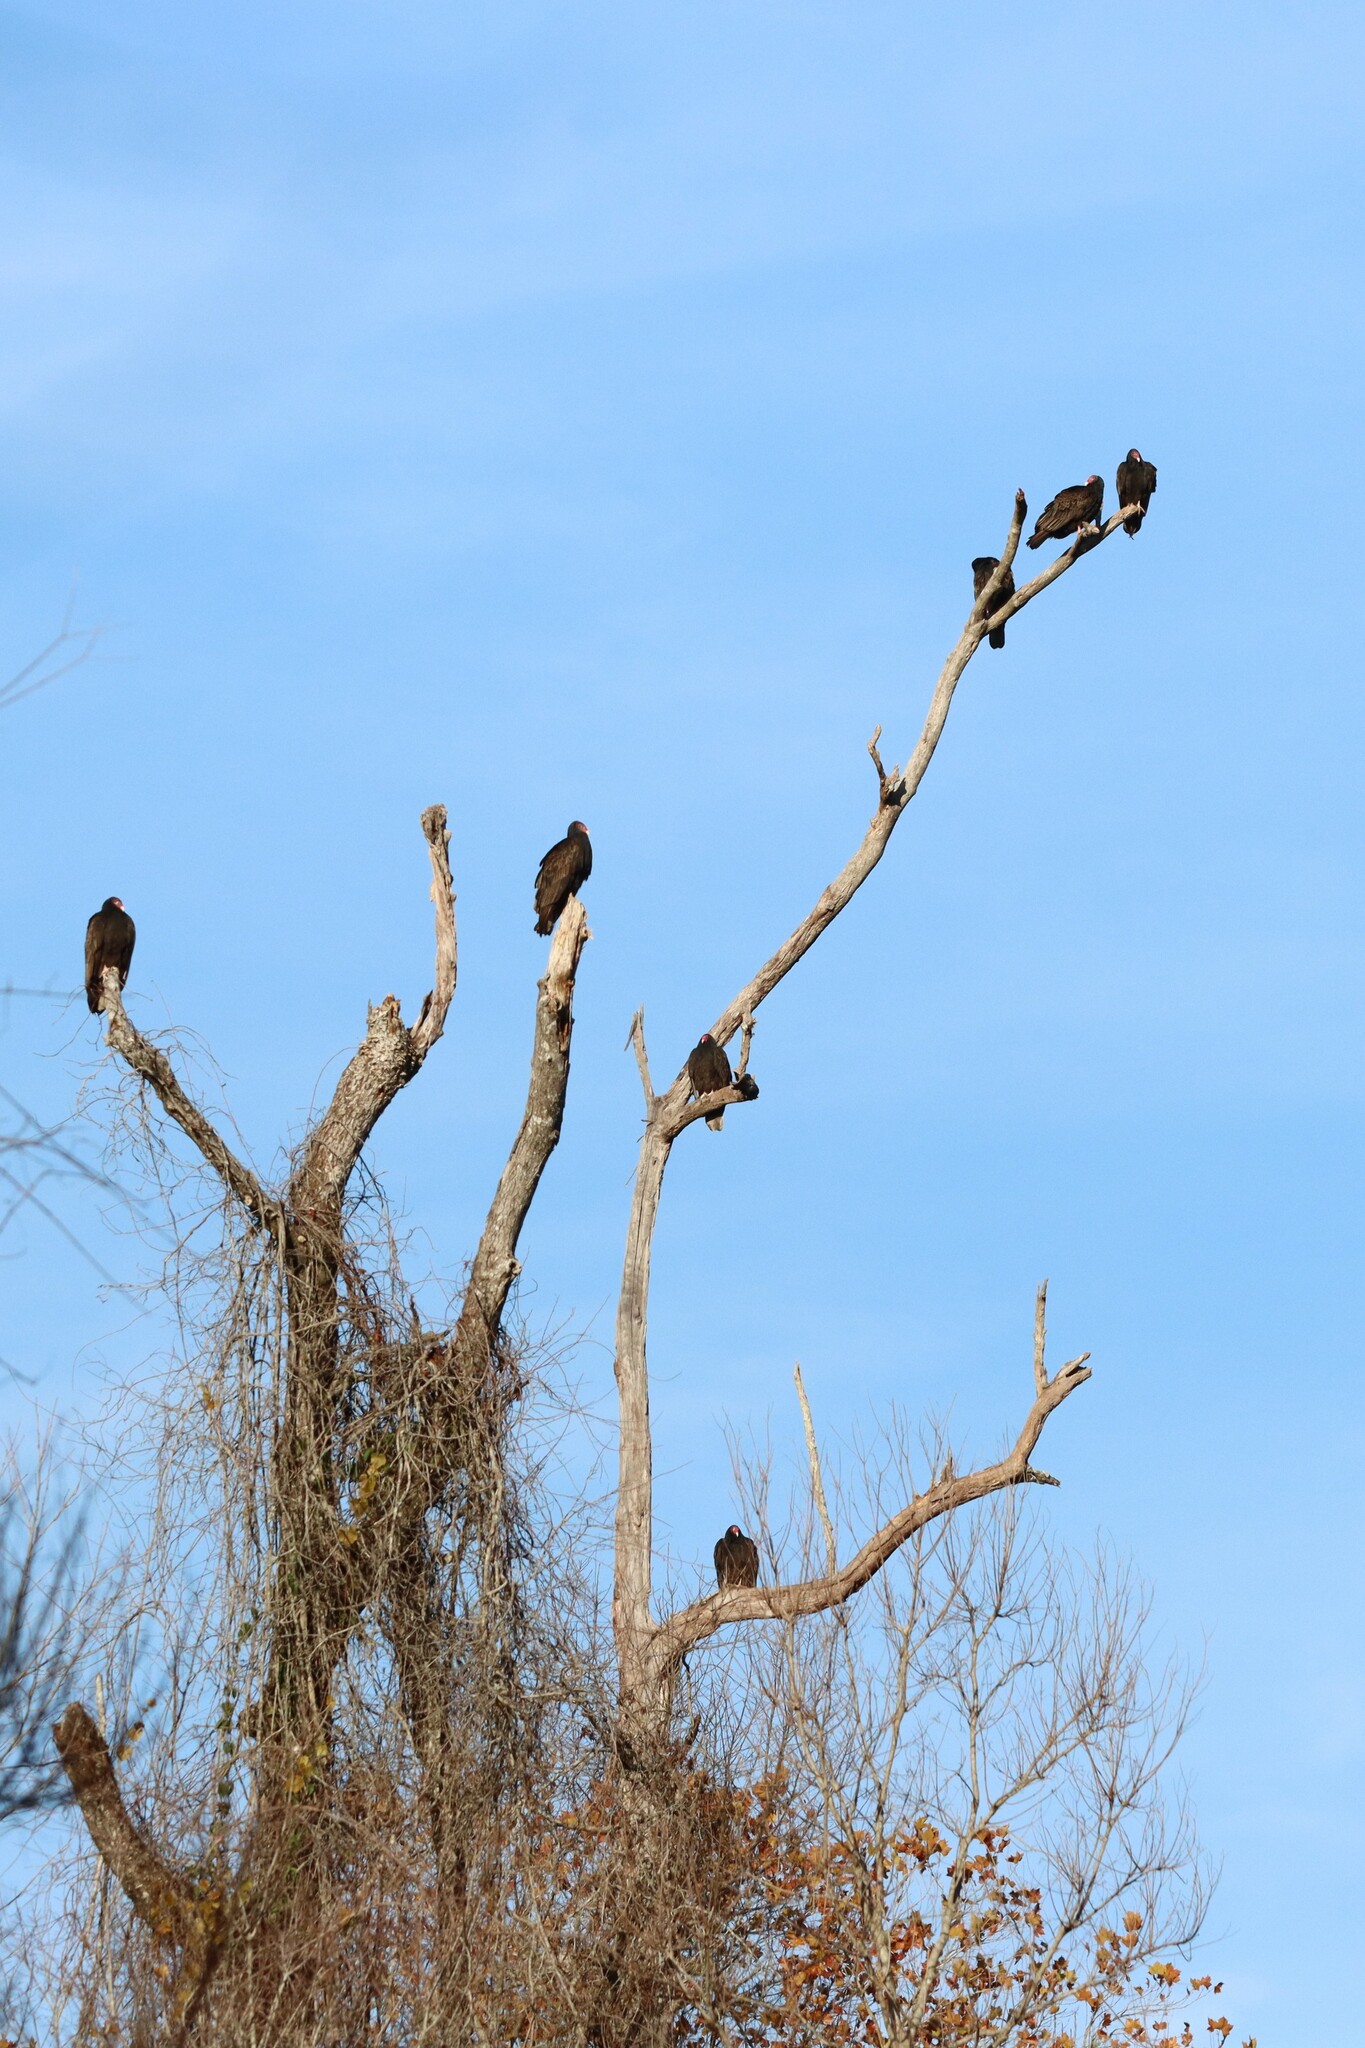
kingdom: Animalia
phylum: Chordata
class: Aves
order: Accipitriformes
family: Cathartidae
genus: Cathartes
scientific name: Cathartes aura
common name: Turkey vulture
